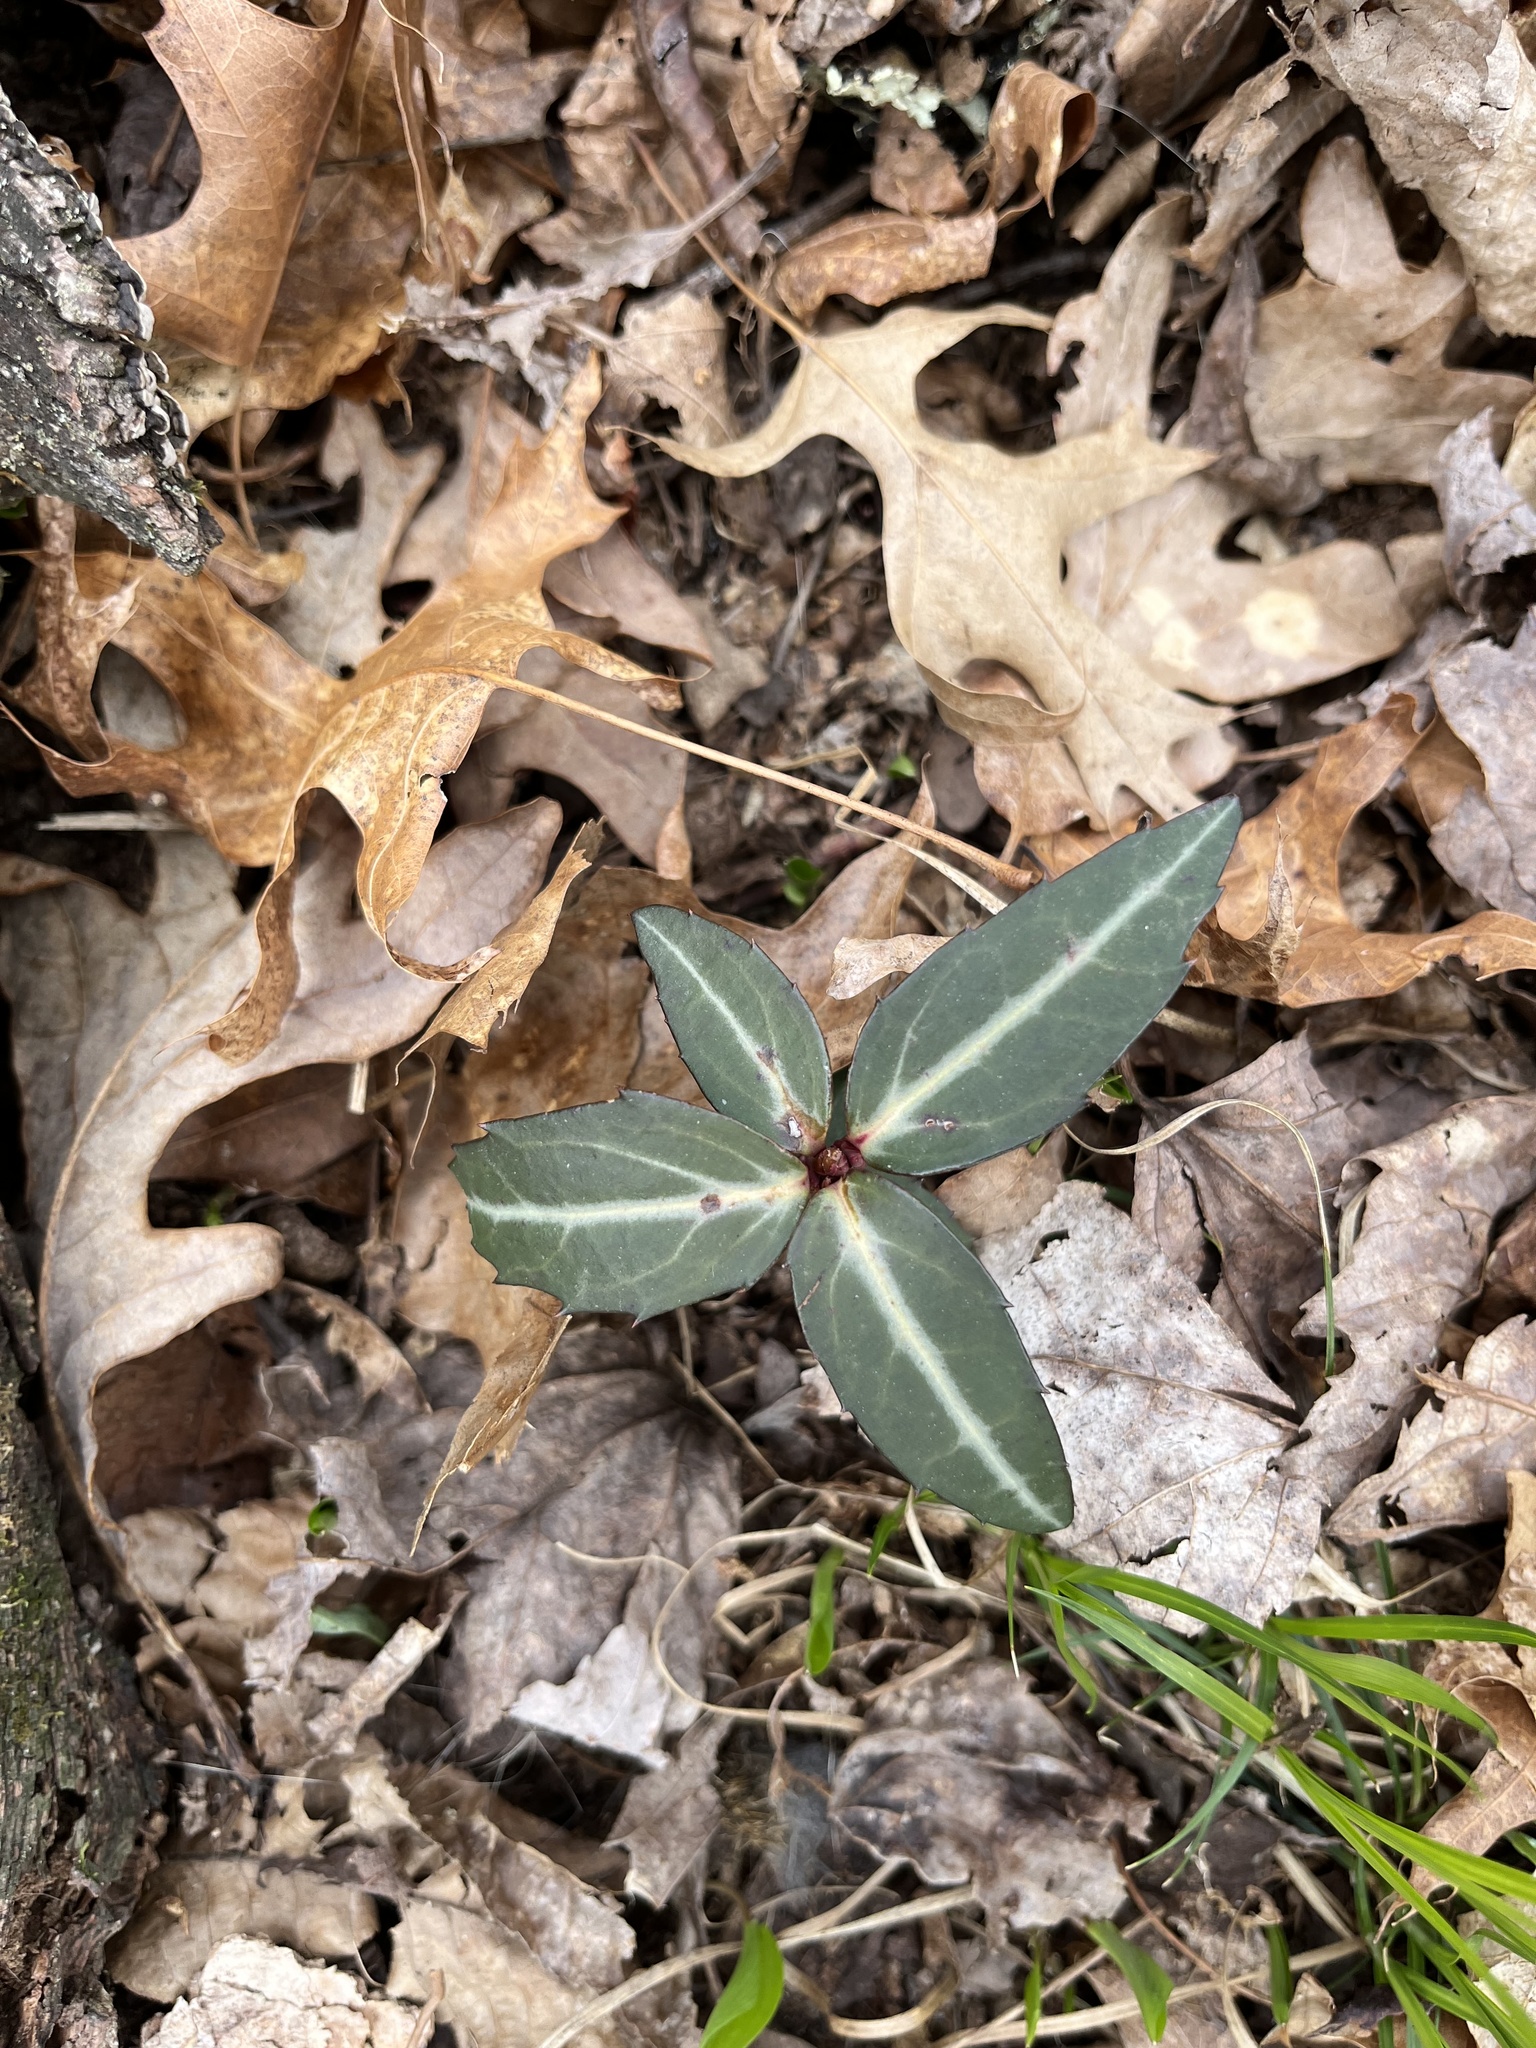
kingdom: Plantae
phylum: Tracheophyta
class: Magnoliopsida
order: Ericales
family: Ericaceae
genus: Chimaphila
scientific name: Chimaphila maculata
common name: Spotted pipsissewa
